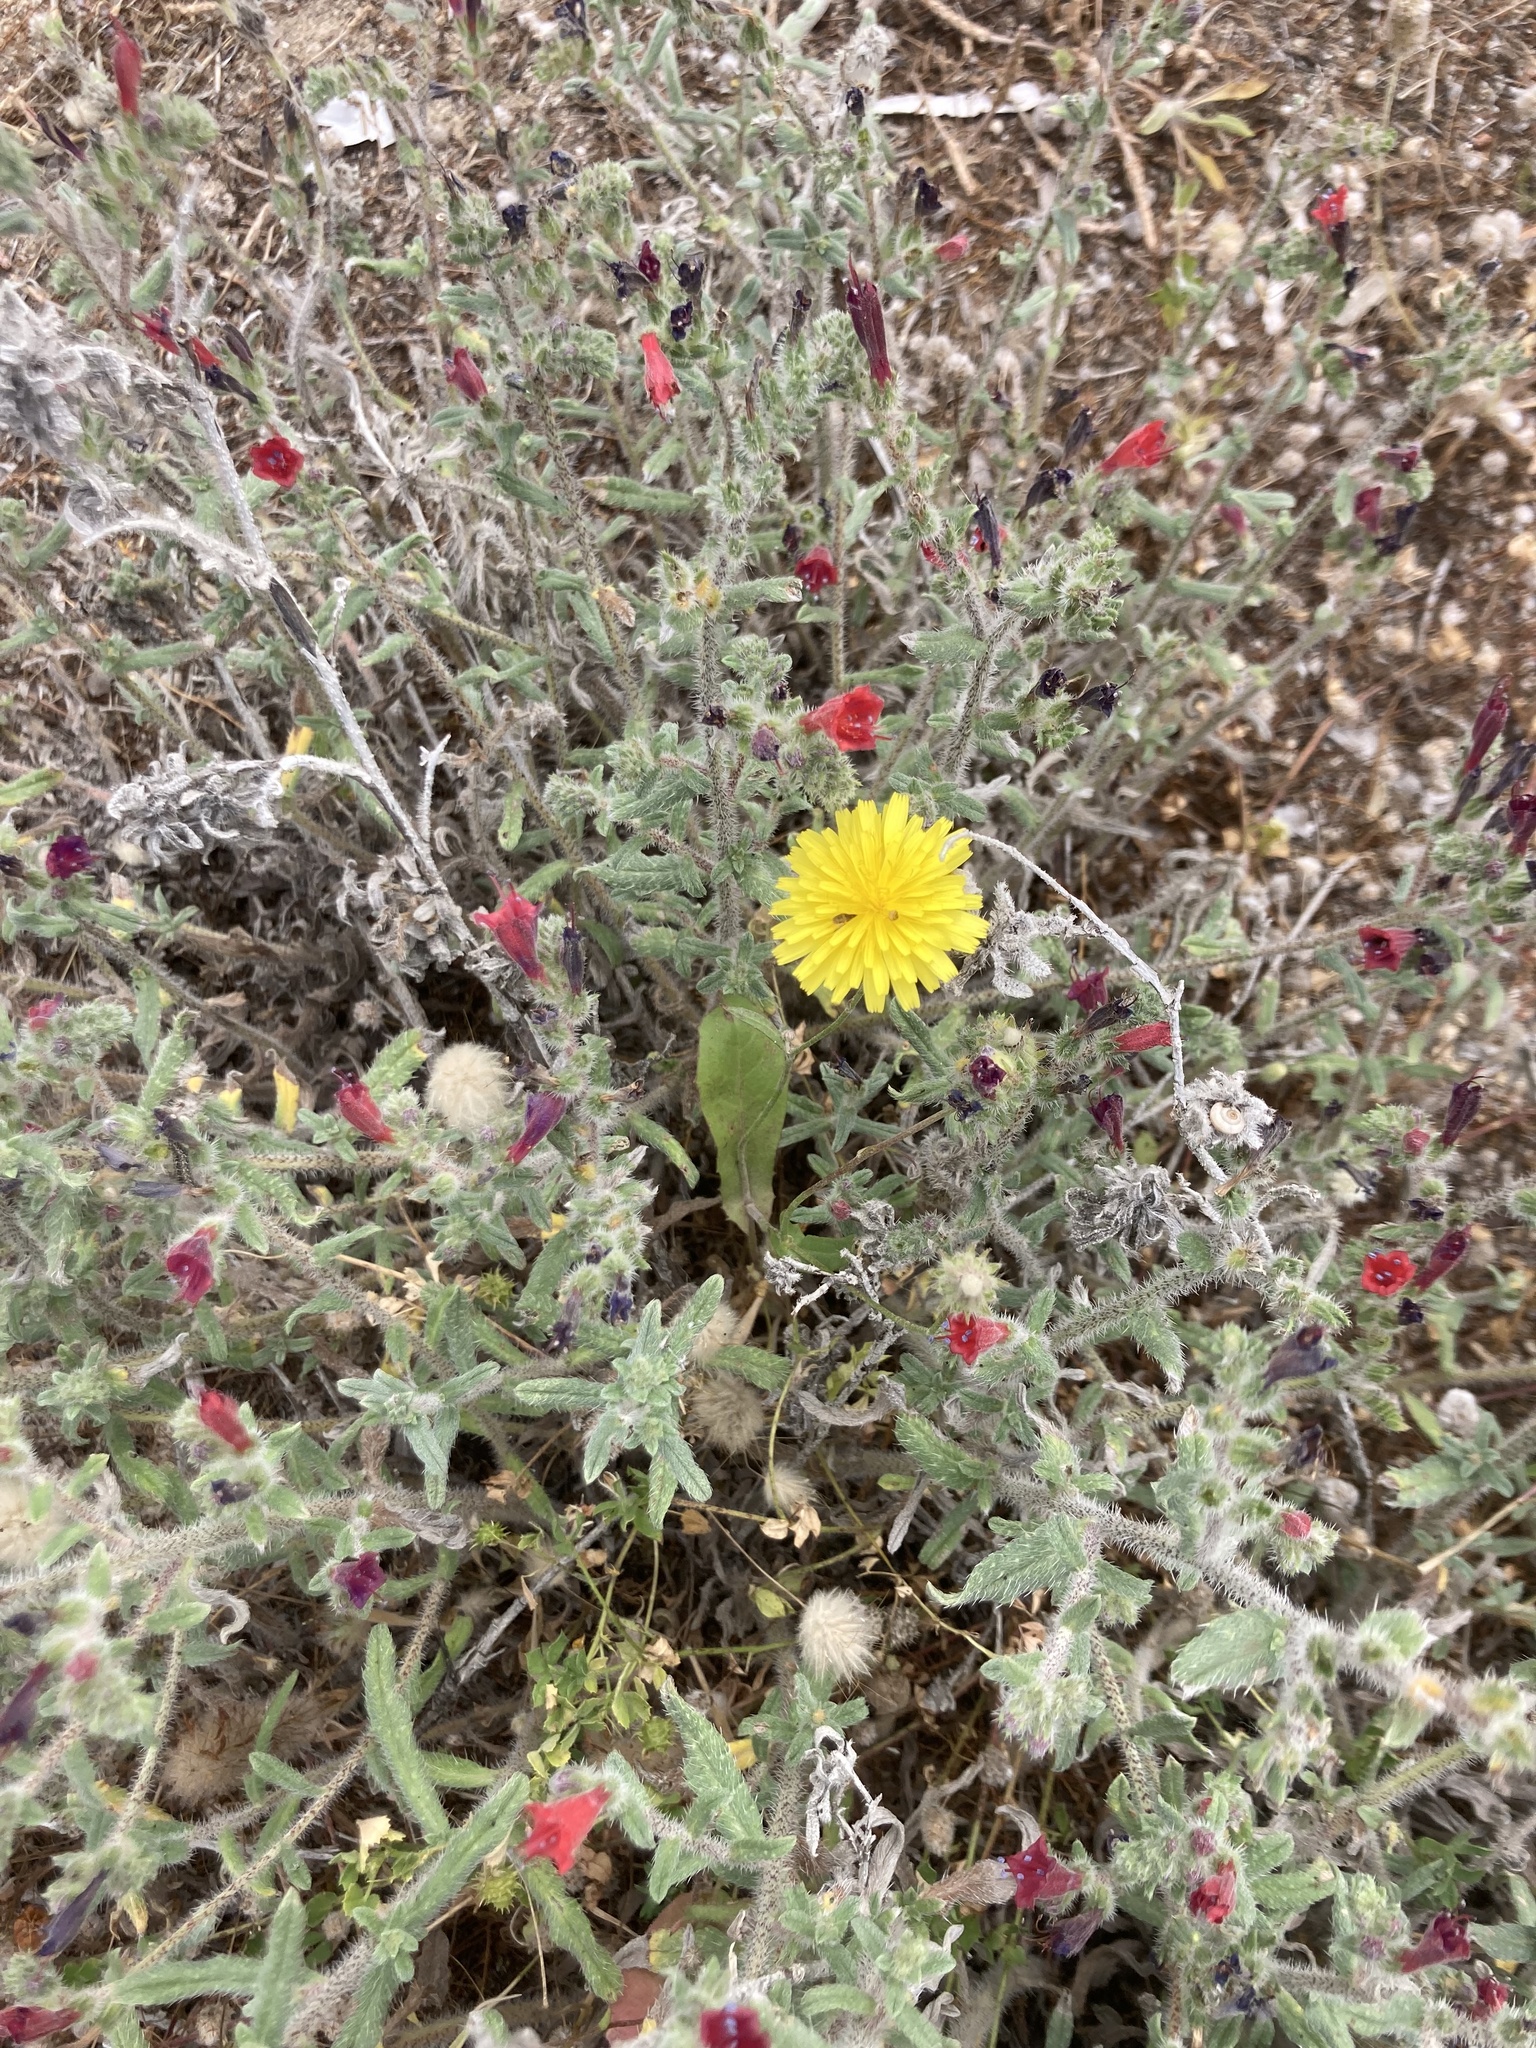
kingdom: Plantae
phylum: Tracheophyta
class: Magnoliopsida
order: Boraginales
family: Boraginaceae
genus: Echium
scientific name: Echium angustifolium
